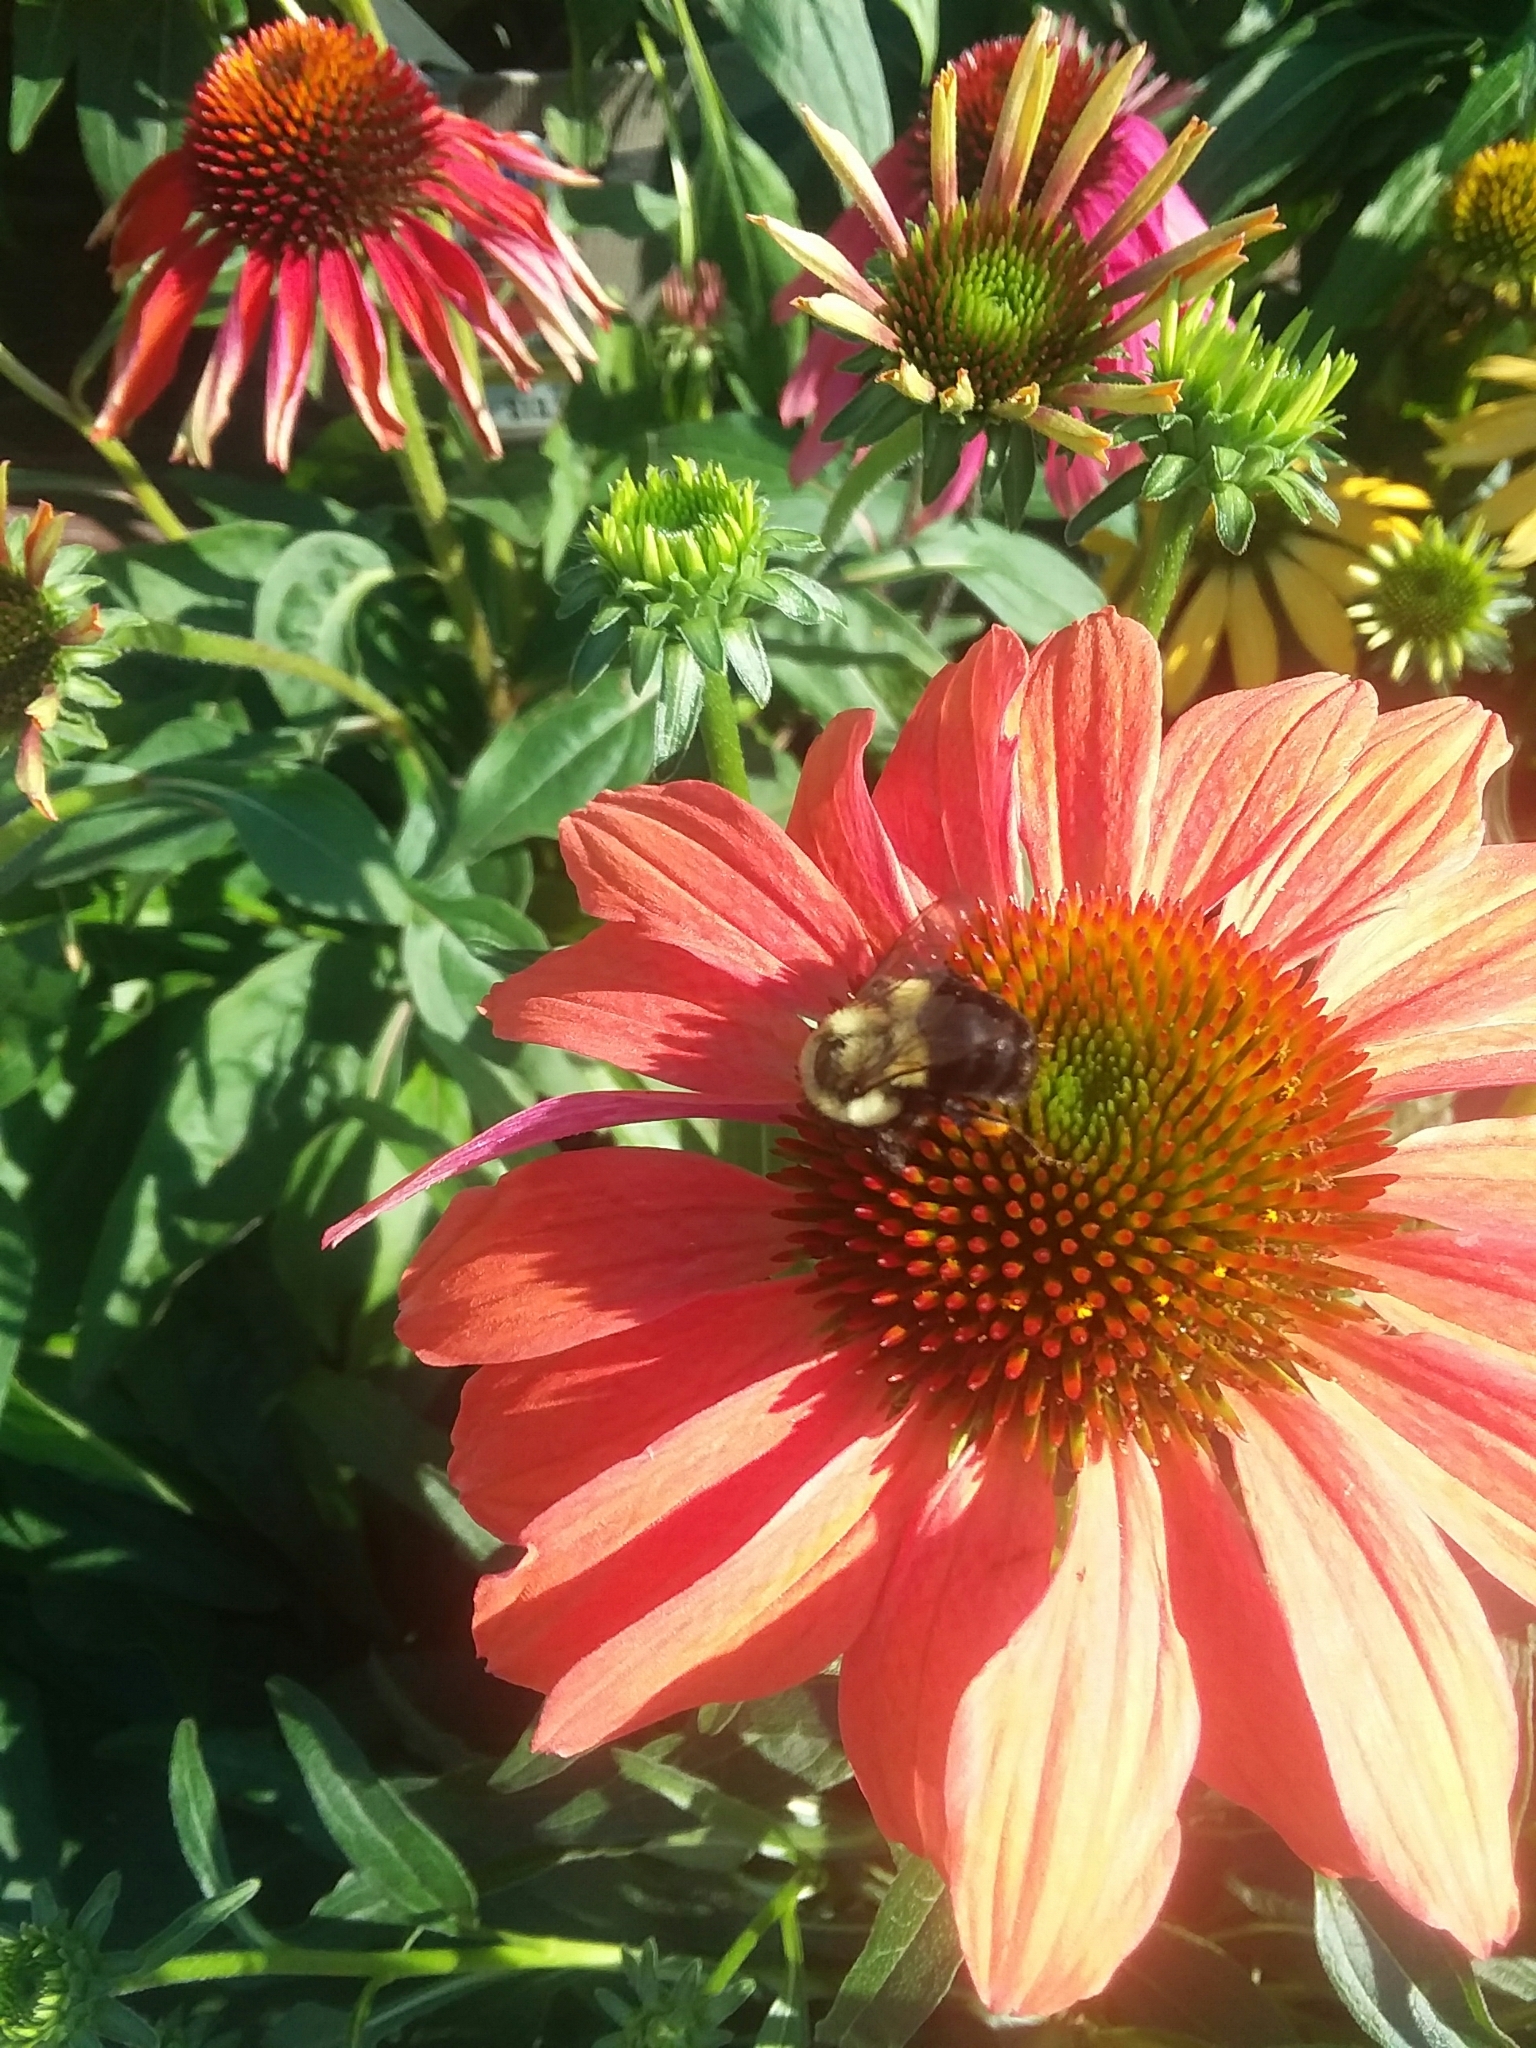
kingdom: Animalia
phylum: Arthropoda
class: Insecta
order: Hymenoptera
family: Apidae
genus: Bombus
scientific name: Bombus impatiens
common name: Common eastern bumble bee
